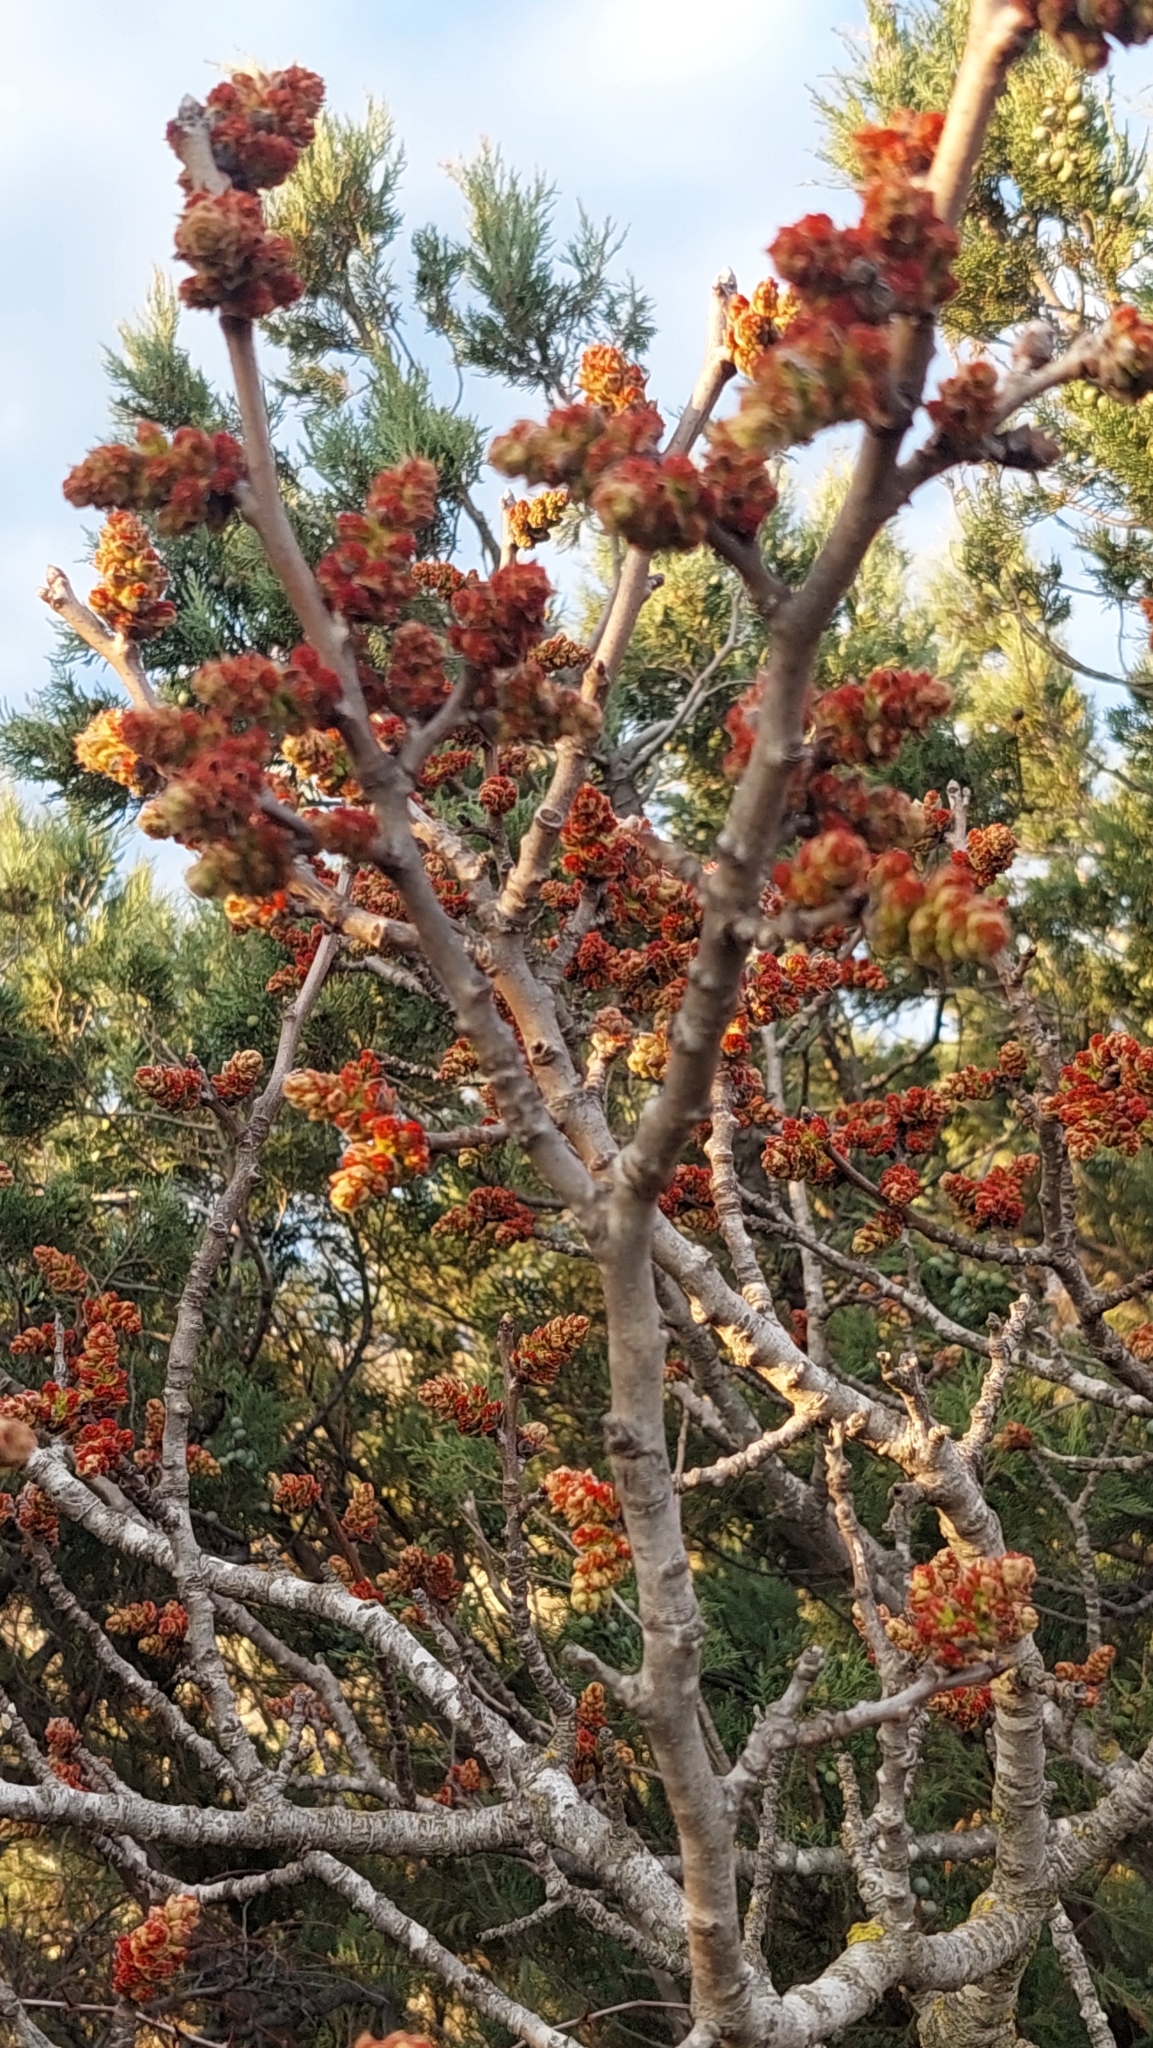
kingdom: Plantae
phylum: Tracheophyta
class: Magnoliopsida
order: Sapindales
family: Anacardiaceae
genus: Pistacia
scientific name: Pistacia atlantica
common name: Mt. atlas mastic tree
